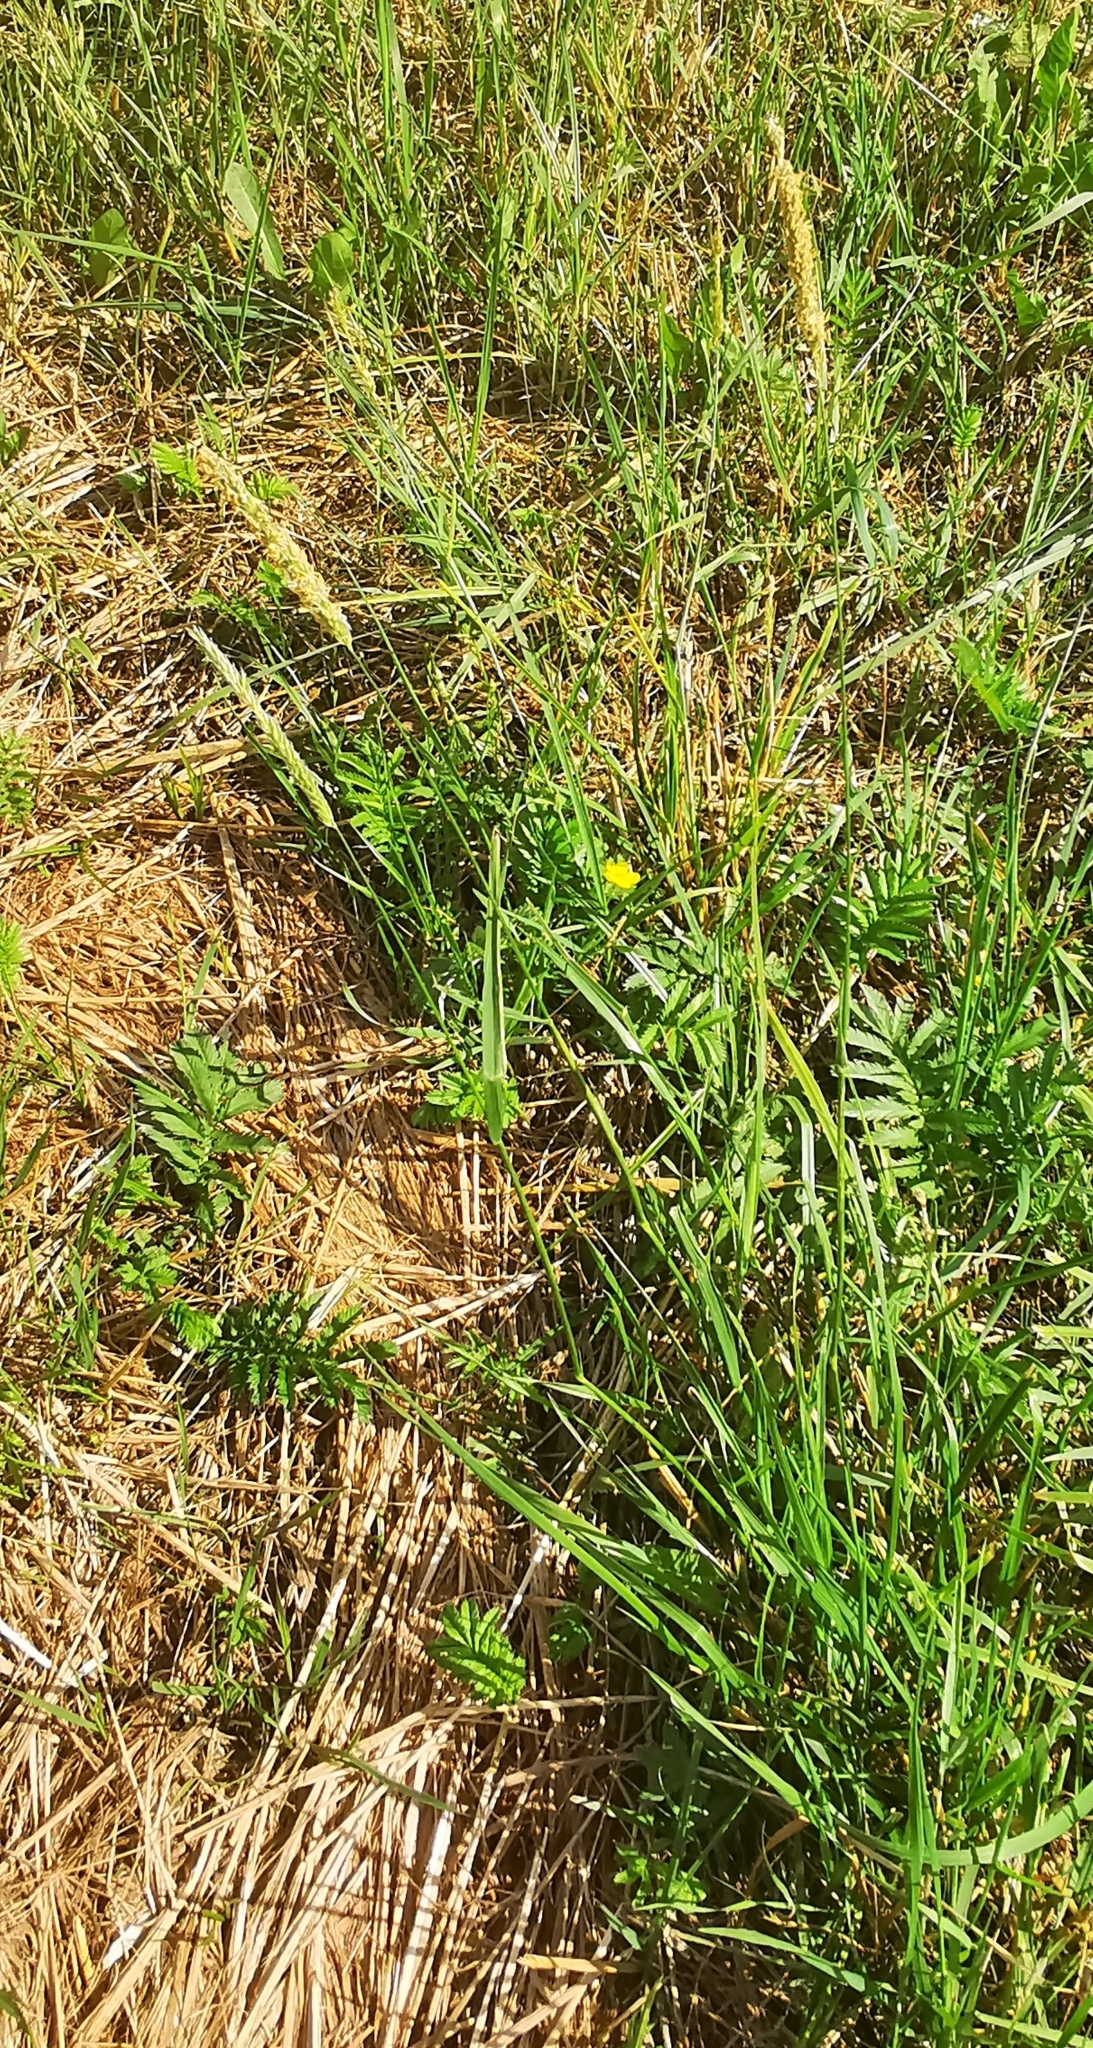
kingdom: Plantae
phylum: Tracheophyta
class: Liliopsida
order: Poales
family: Poaceae
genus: Alopecurus
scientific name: Alopecurus pratensis
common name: Meadow foxtail
